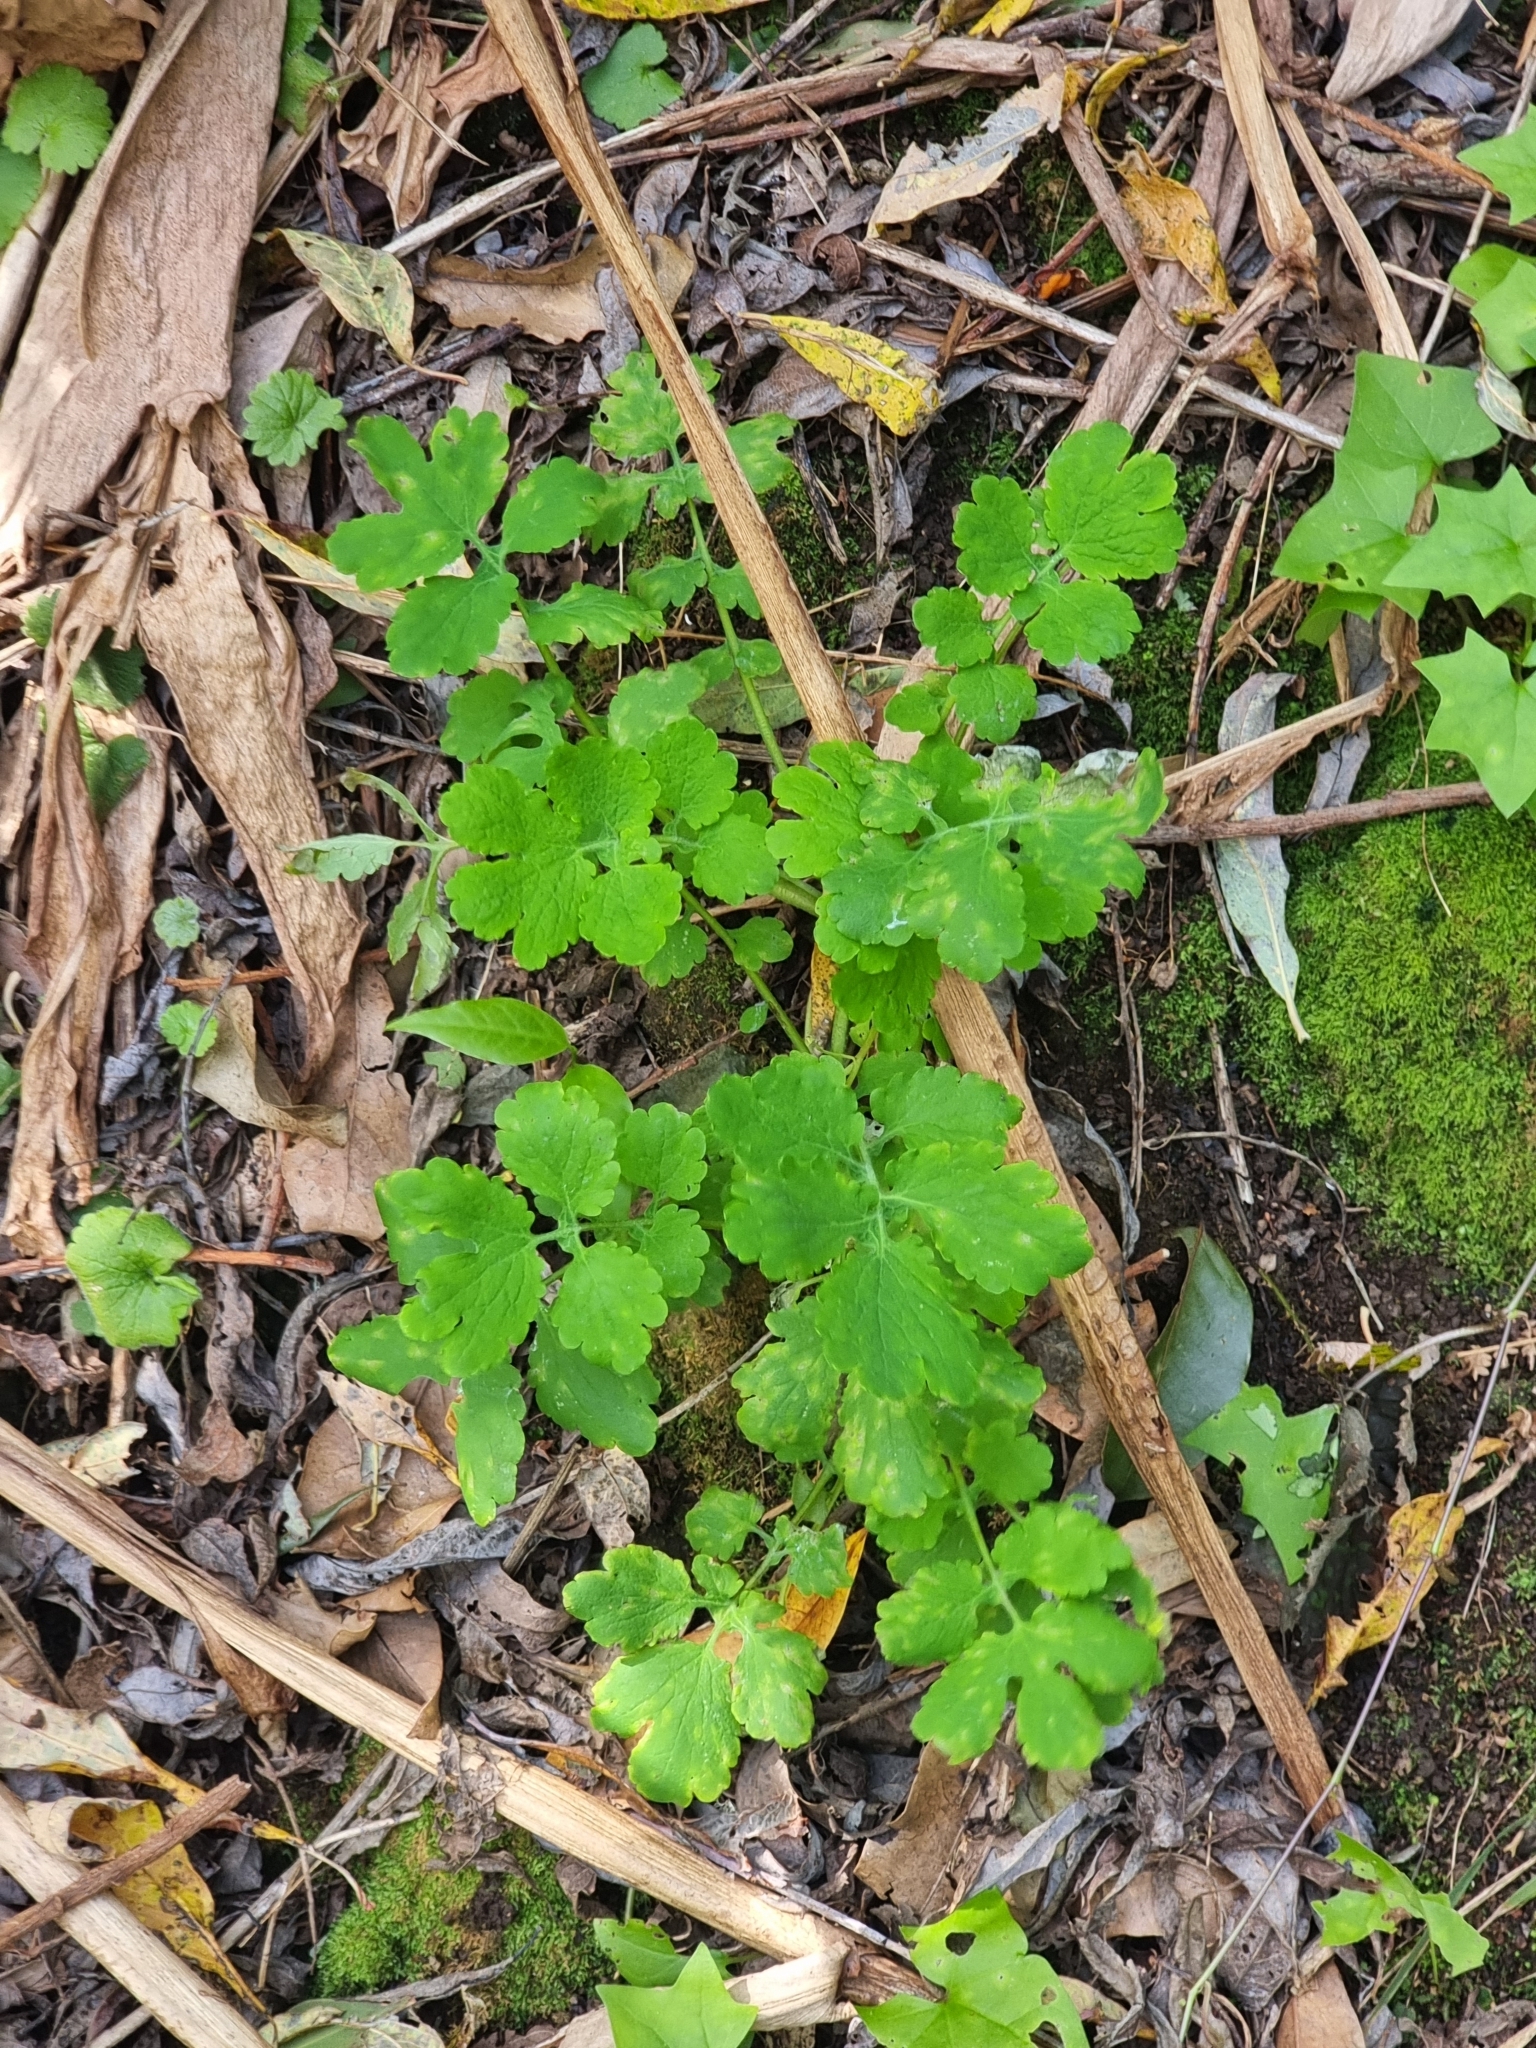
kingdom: Plantae
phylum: Tracheophyta
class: Magnoliopsida
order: Ranunculales
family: Papaveraceae
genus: Chelidonium
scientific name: Chelidonium majus
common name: Greater celandine
